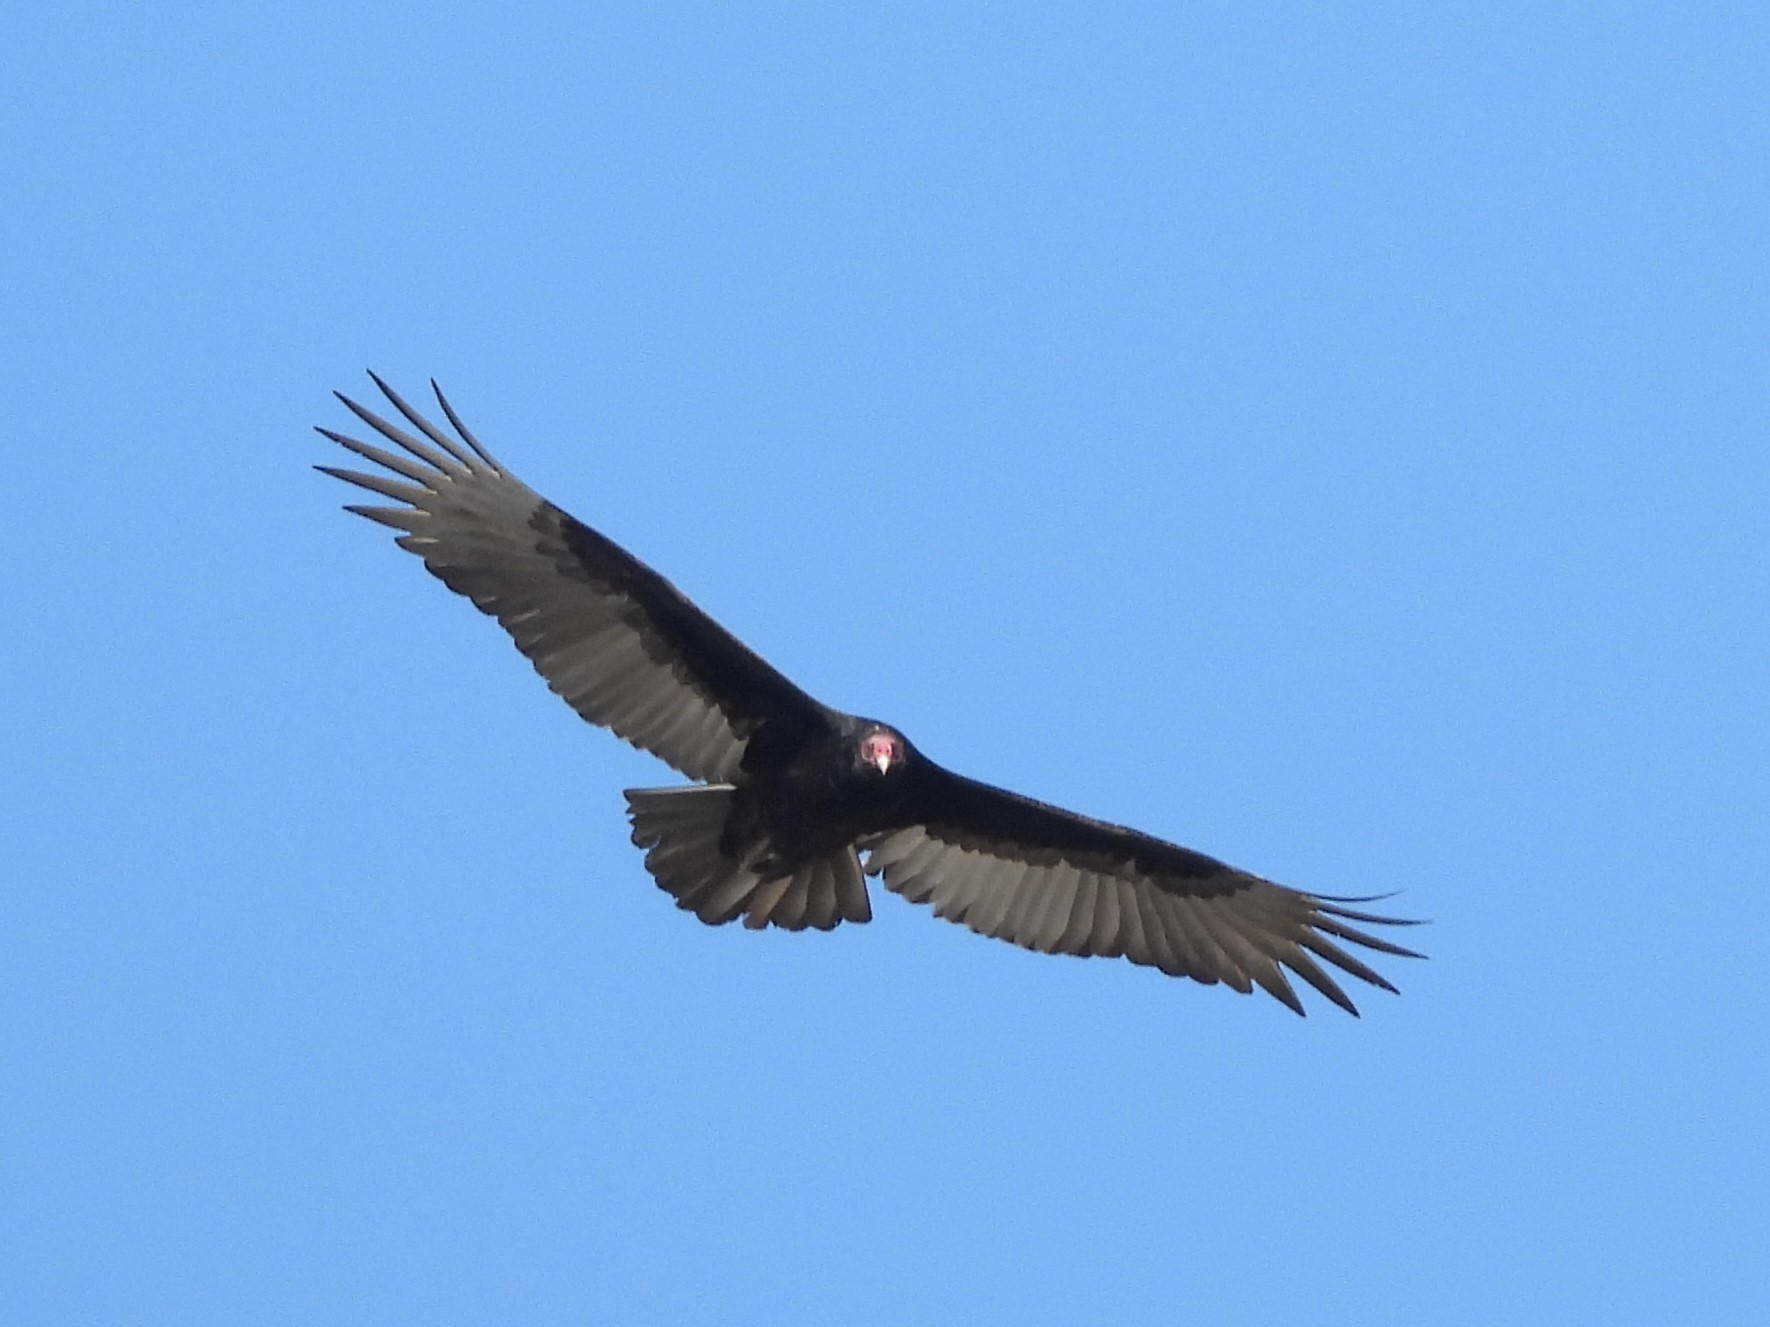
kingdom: Animalia
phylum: Chordata
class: Aves
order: Accipitriformes
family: Cathartidae
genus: Cathartes
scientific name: Cathartes aura
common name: Turkey vulture
